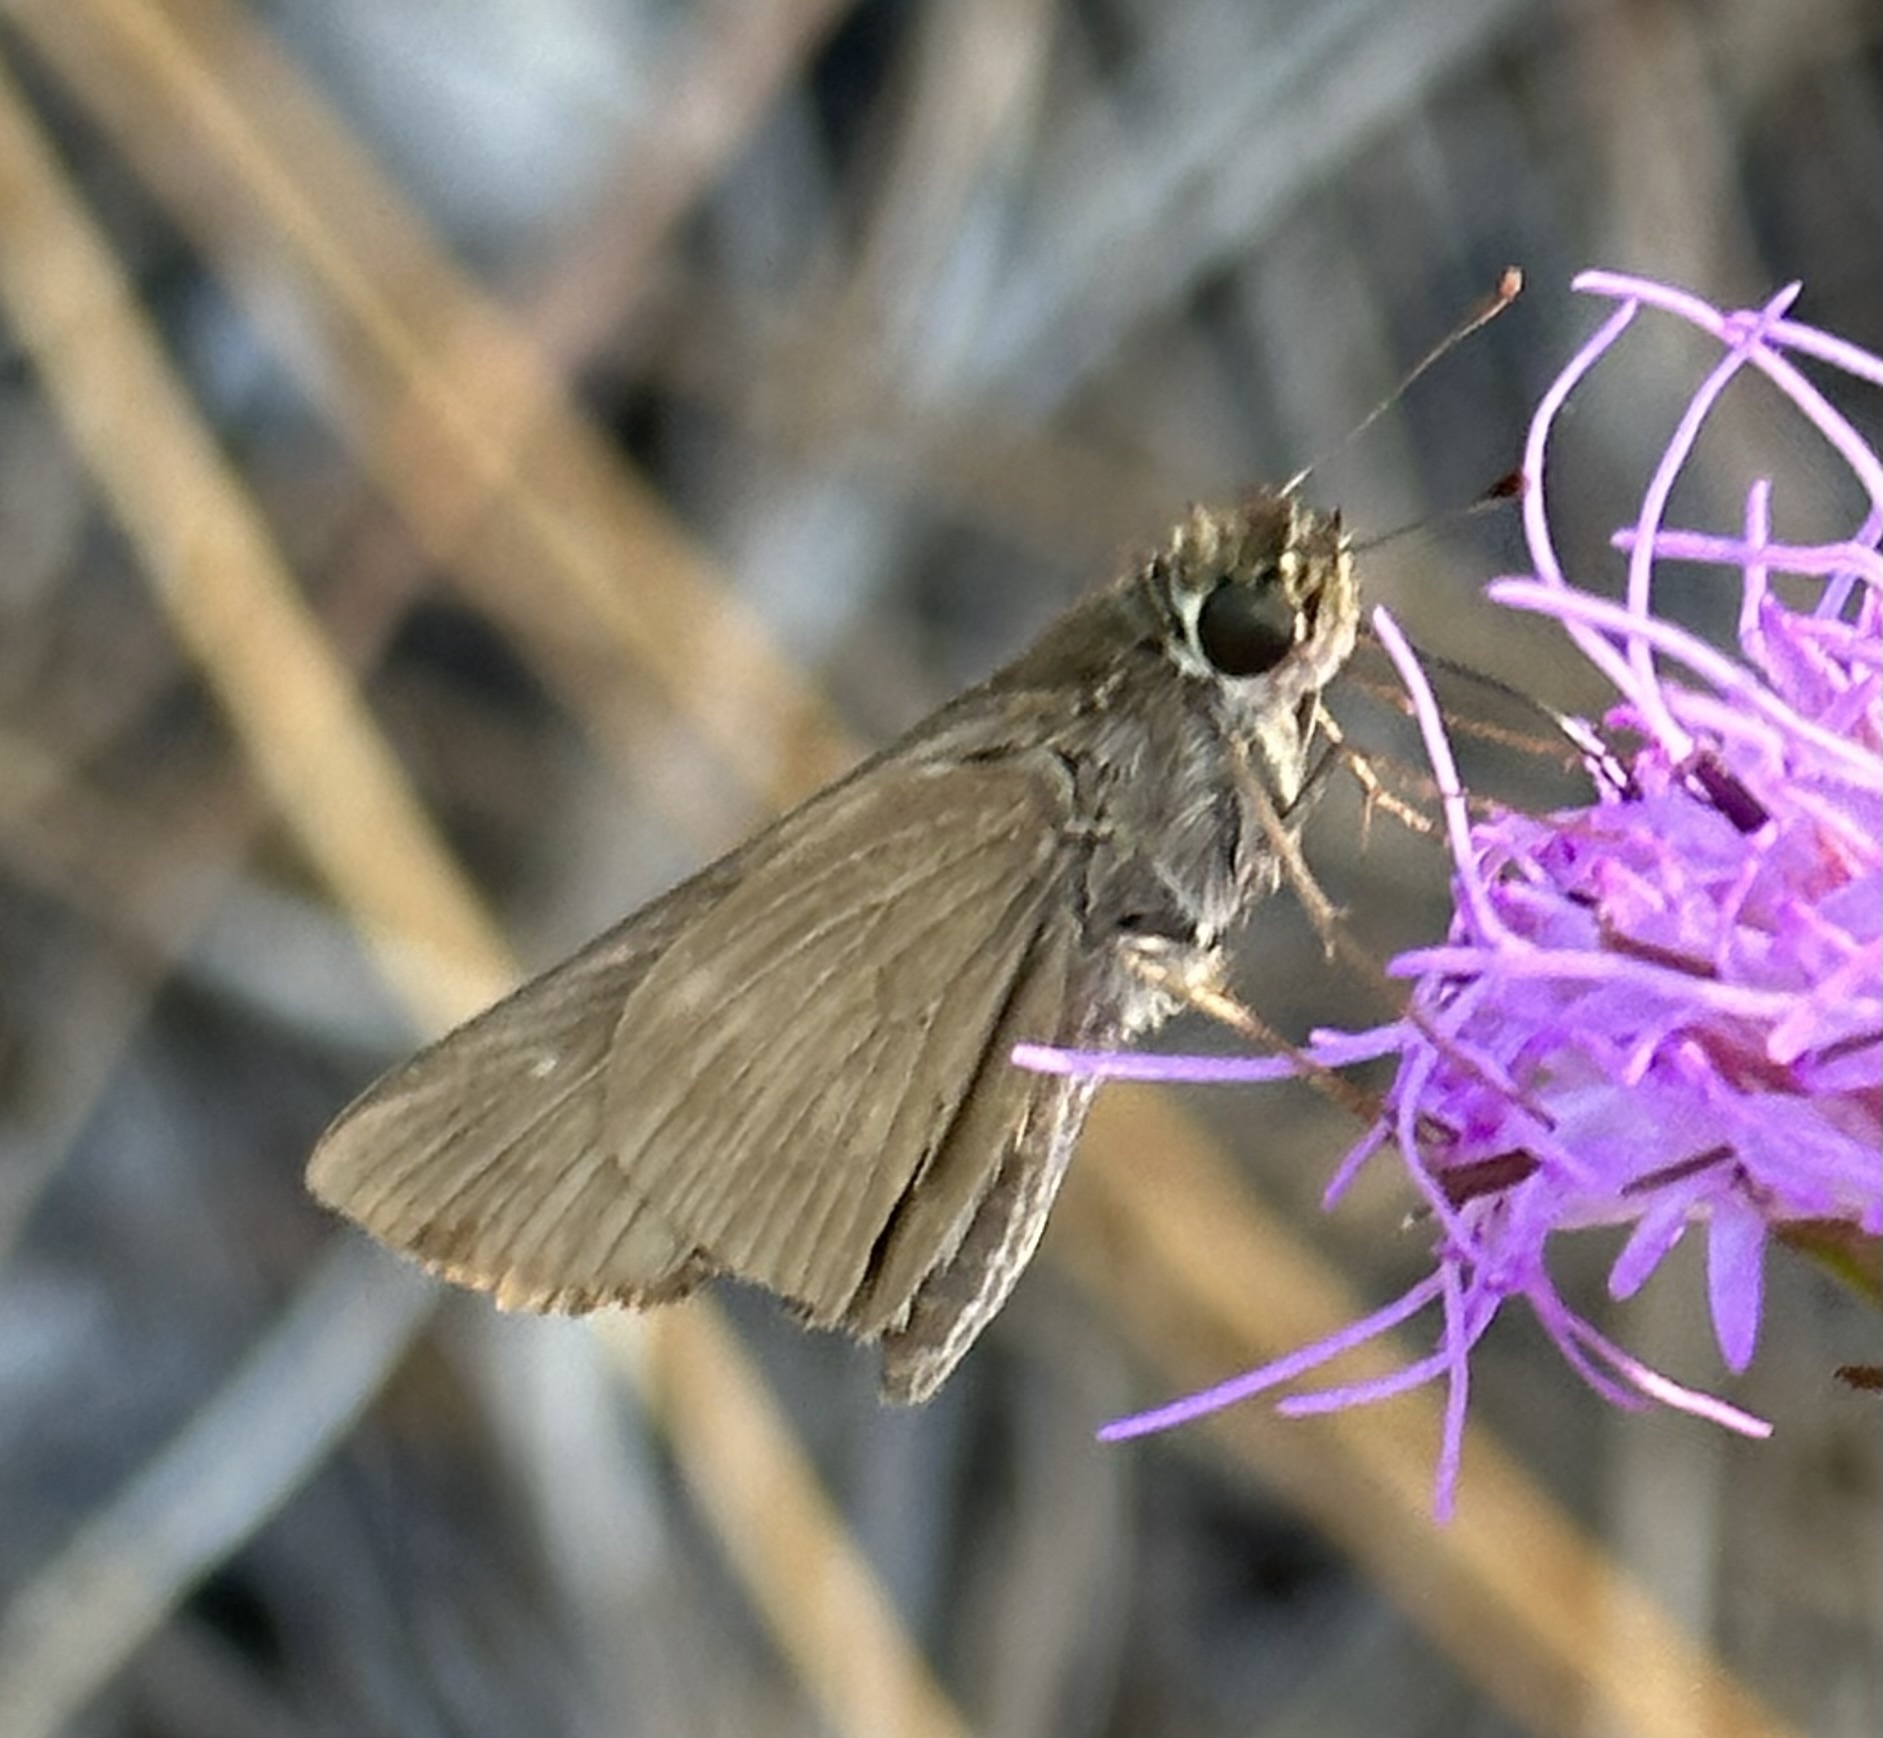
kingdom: Animalia
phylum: Arthropoda
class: Insecta
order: Lepidoptera
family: Hesperiidae
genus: Panoquina
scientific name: Panoquina ocola
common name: Ocola skipper
